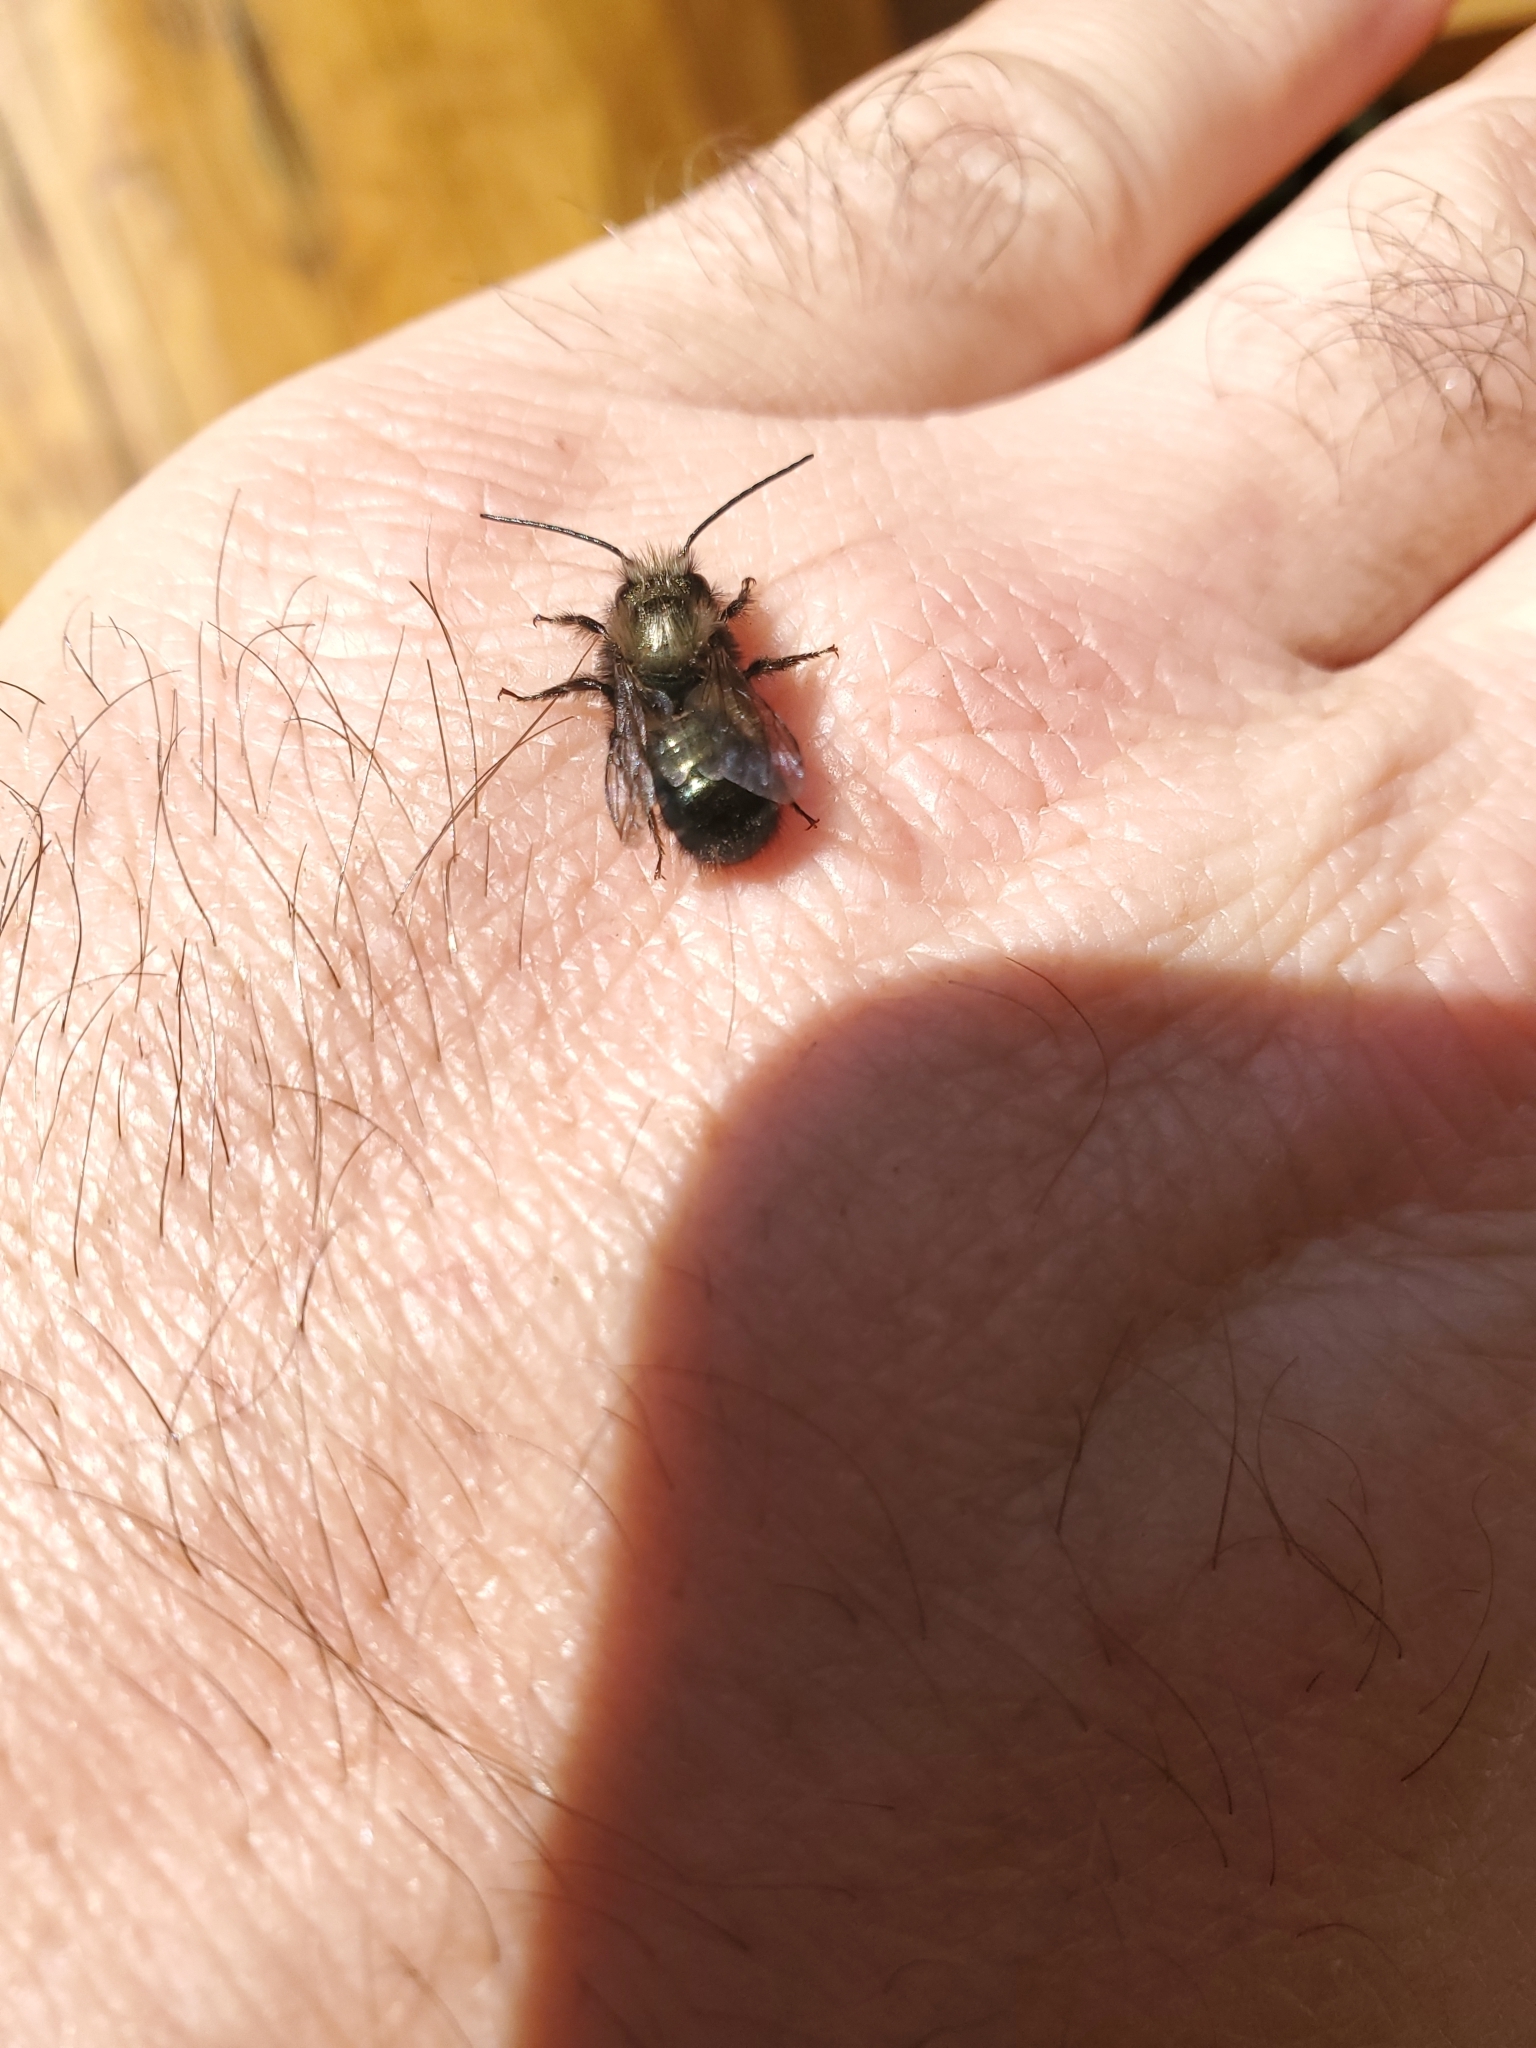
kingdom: Animalia
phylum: Arthropoda
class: Insecta
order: Hymenoptera
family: Megachilidae
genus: Osmia
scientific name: Osmia lignaria
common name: Blue orchard bee
